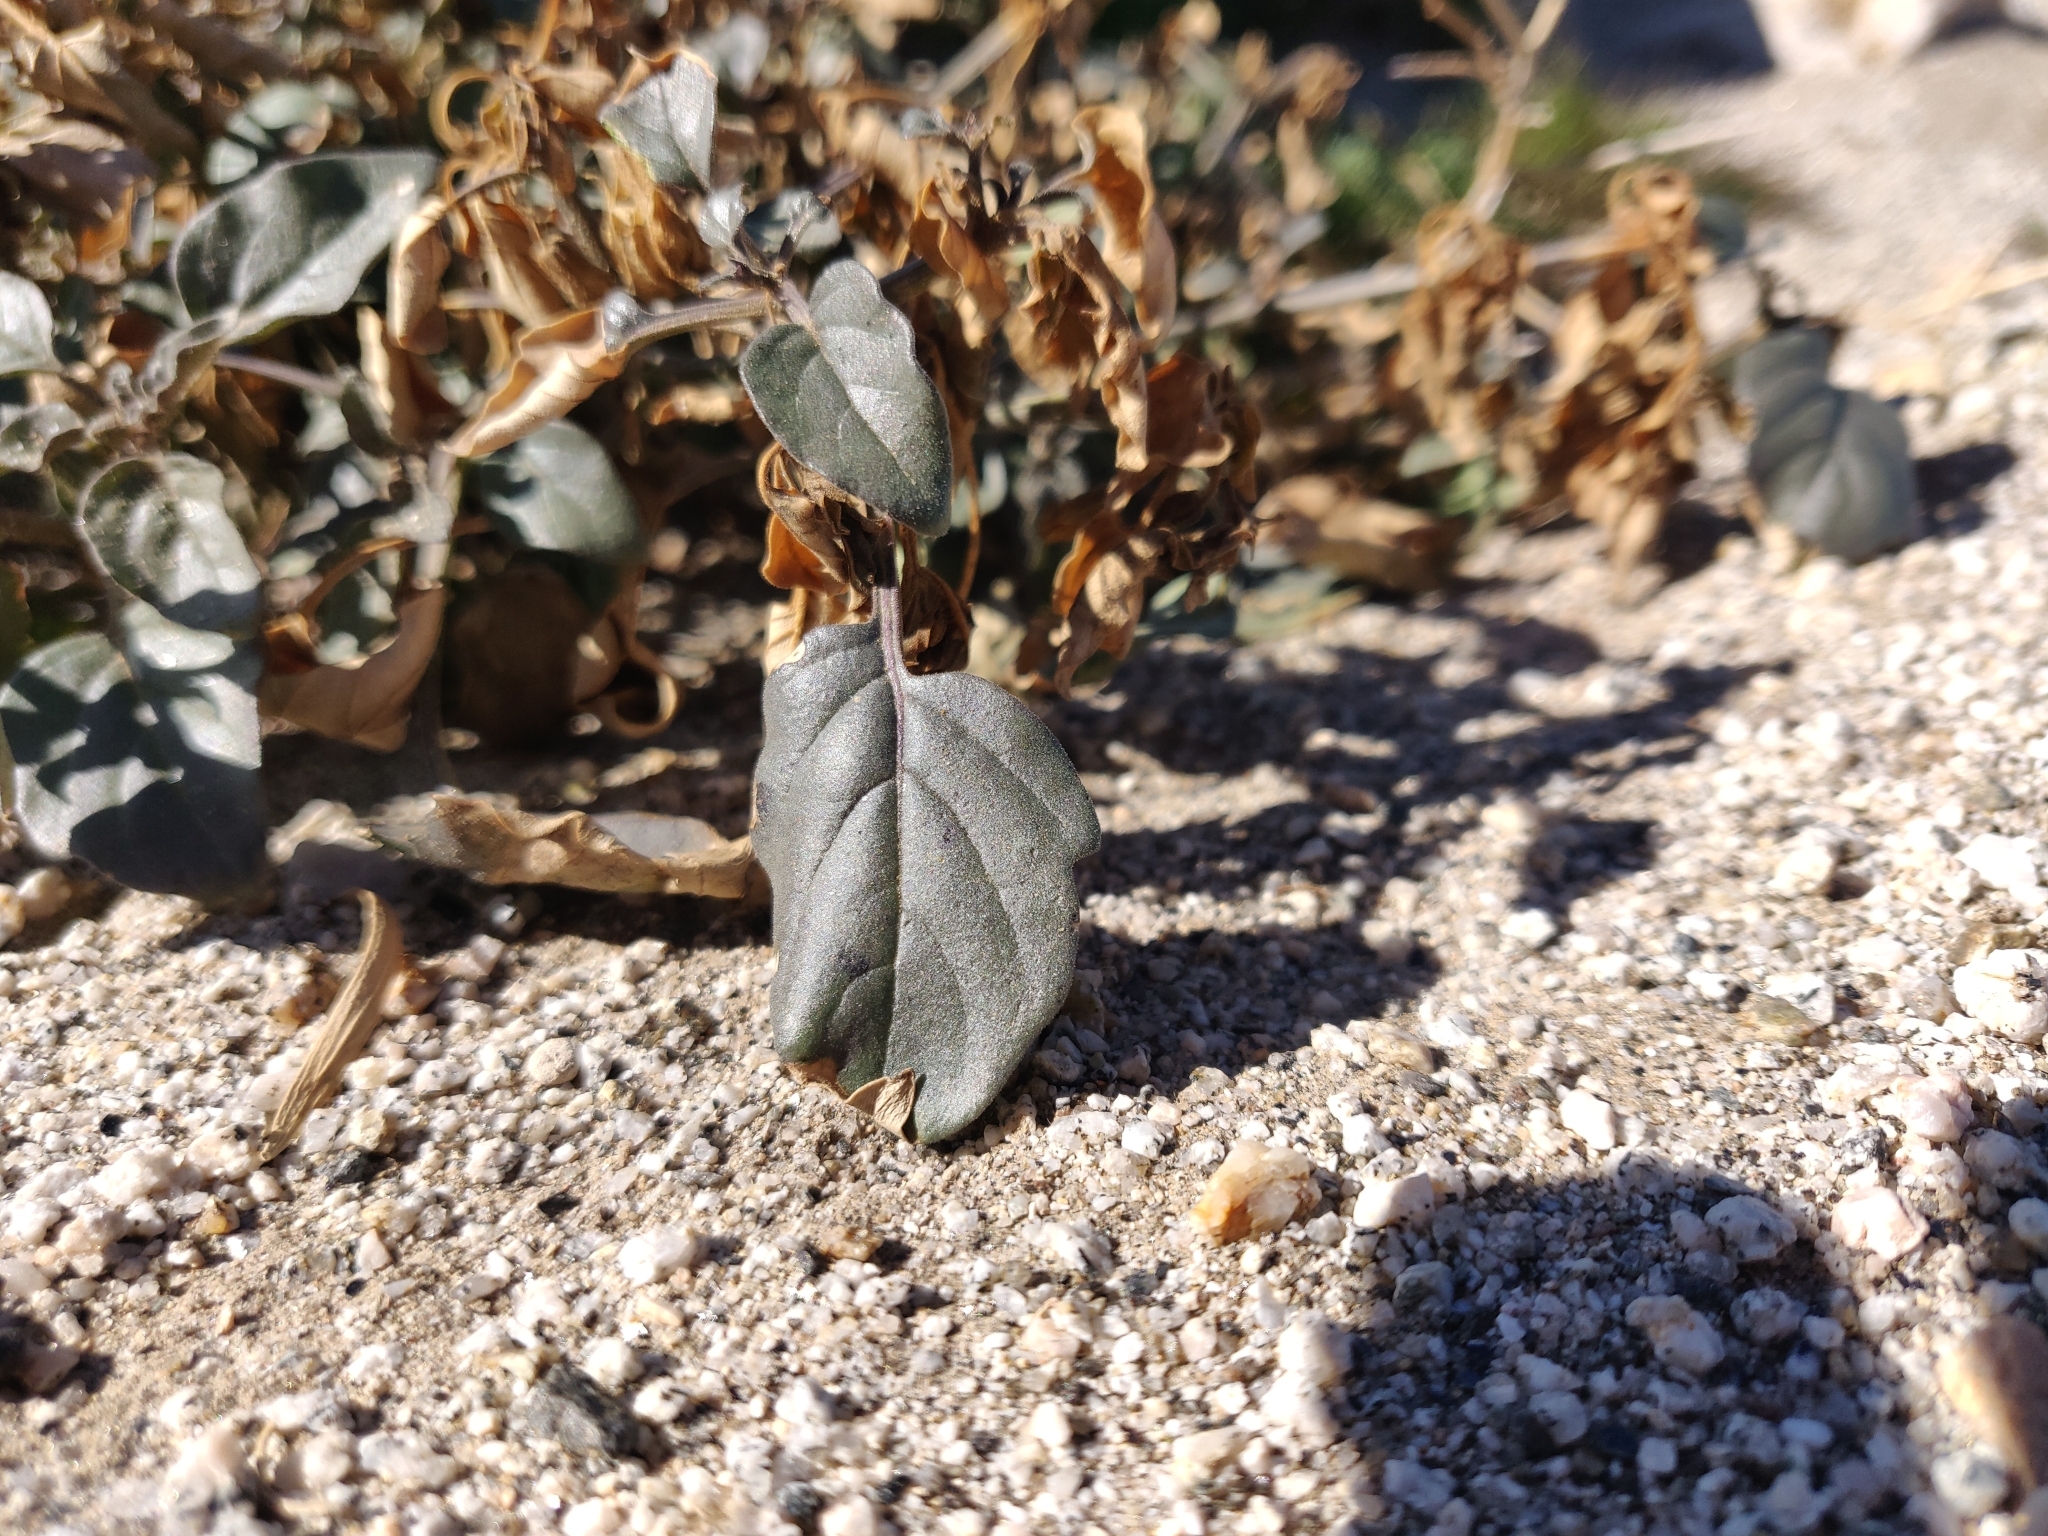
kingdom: Plantae
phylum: Tracheophyta
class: Magnoliopsida
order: Solanales
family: Solanaceae
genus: Physalis
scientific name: Physalis crassifolia
